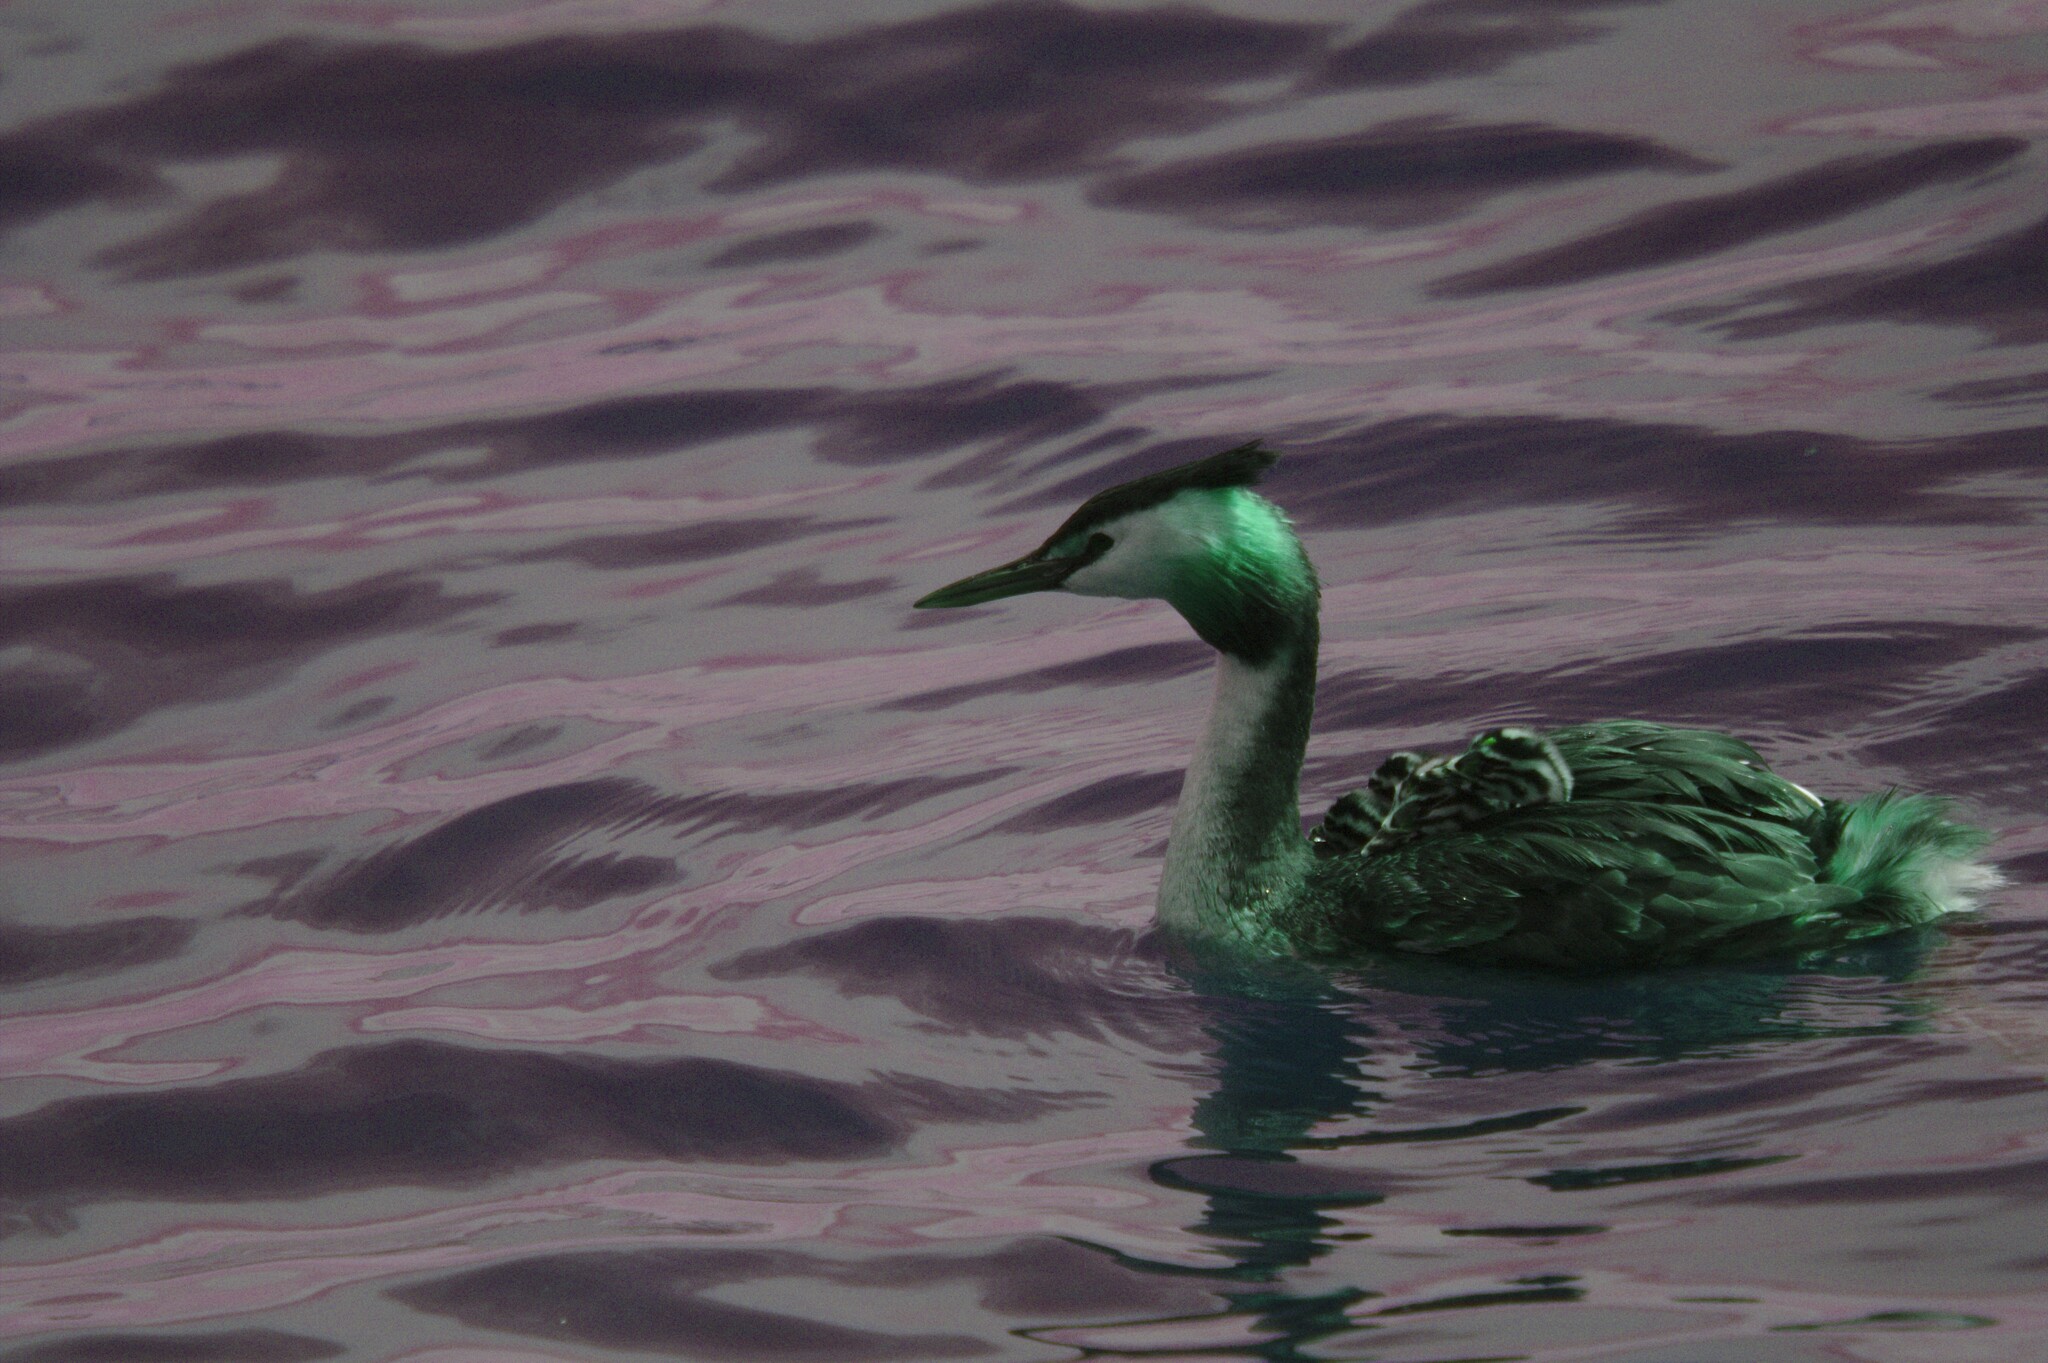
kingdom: Animalia
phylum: Chordata
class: Aves
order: Podicipediformes
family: Podicipedidae
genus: Podiceps
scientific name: Podiceps cristatus
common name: Great crested grebe
